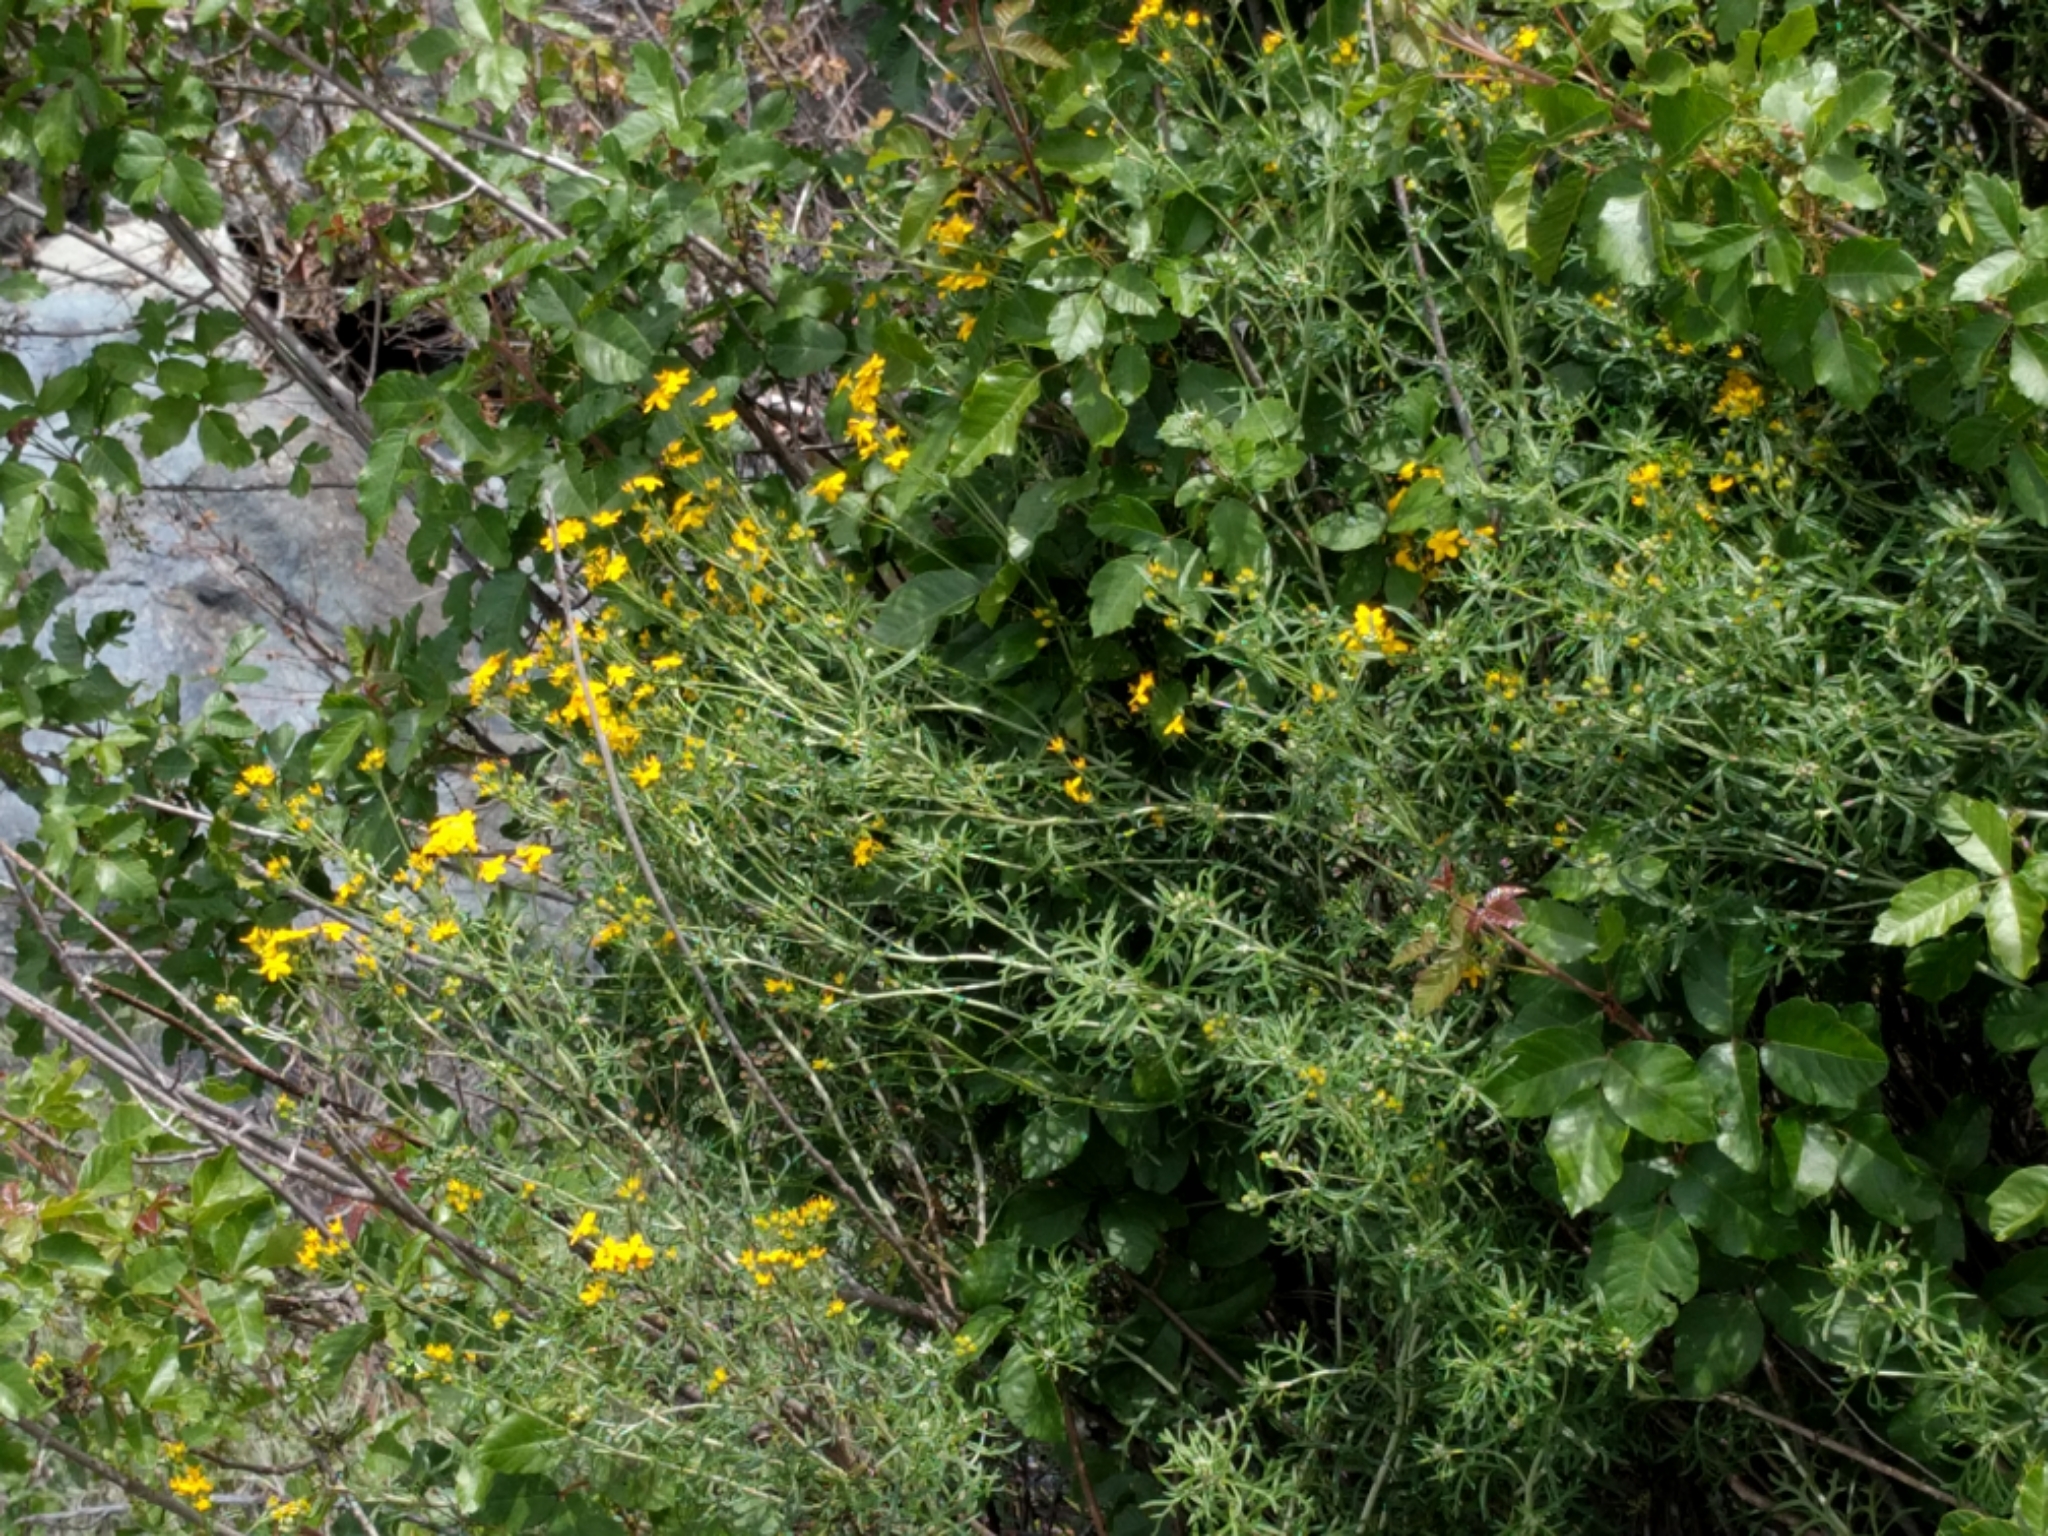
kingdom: Plantae
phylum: Tracheophyta
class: Magnoliopsida
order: Asterales
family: Asteraceae
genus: Eriophyllum
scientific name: Eriophyllum confertiflorum
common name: Golden-yarrow
